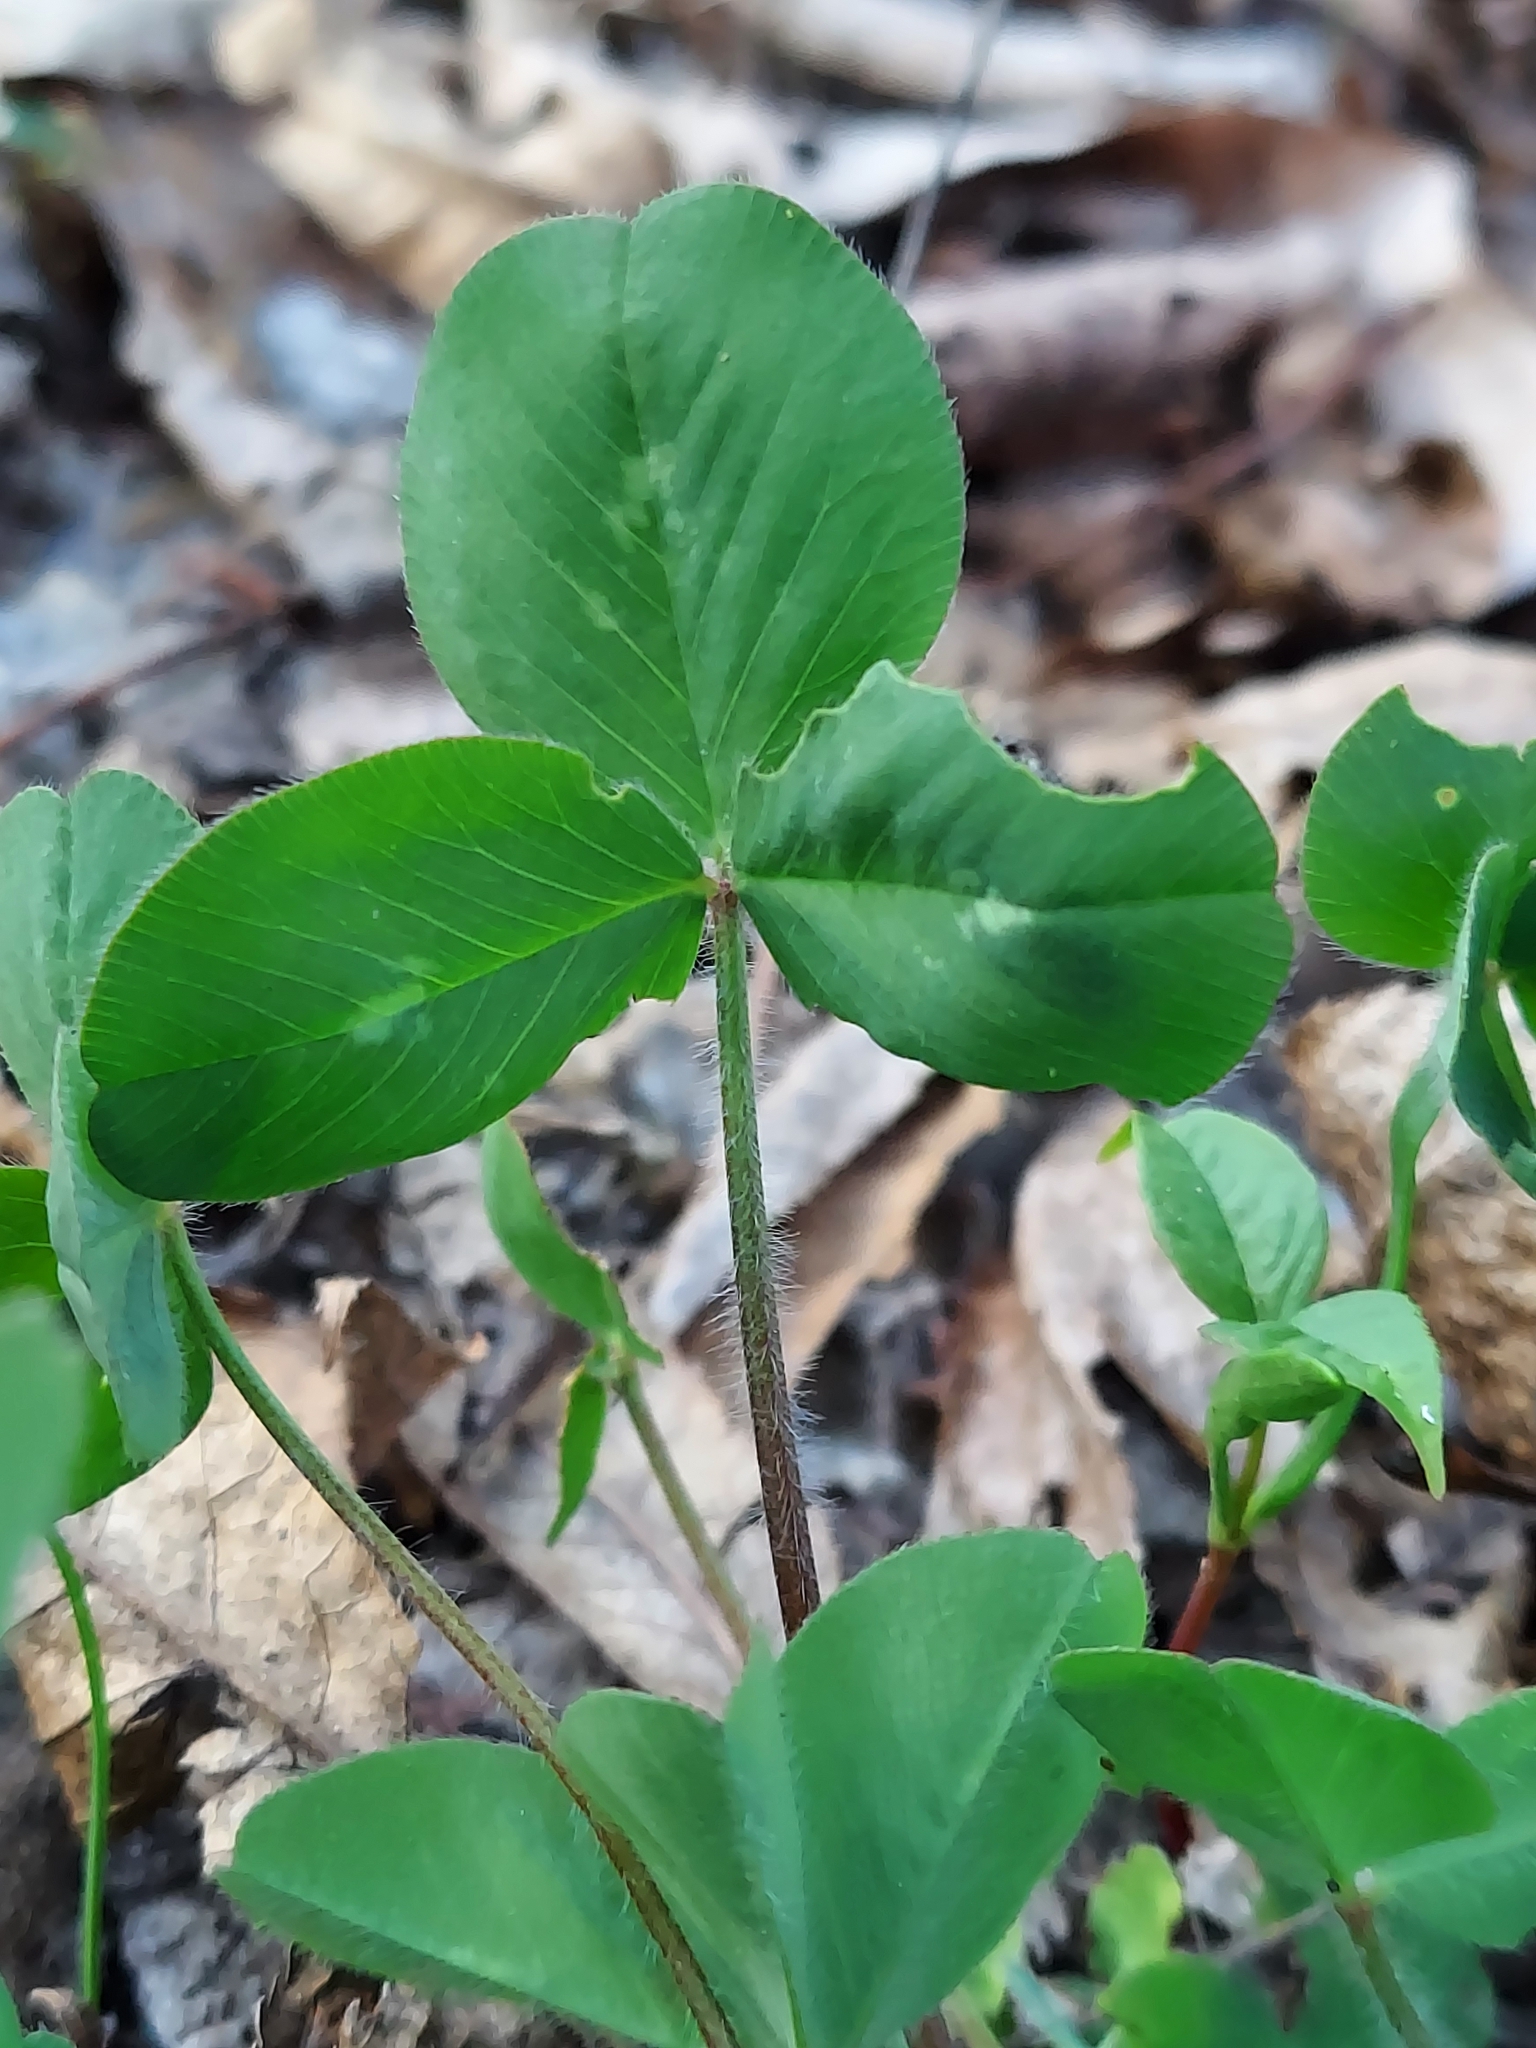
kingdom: Plantae
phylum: Tracheophyta
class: Magnoliopsida
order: Fabales
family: Fabaceae
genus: Trifolium
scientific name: Trifolium pratense
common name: Red clover
